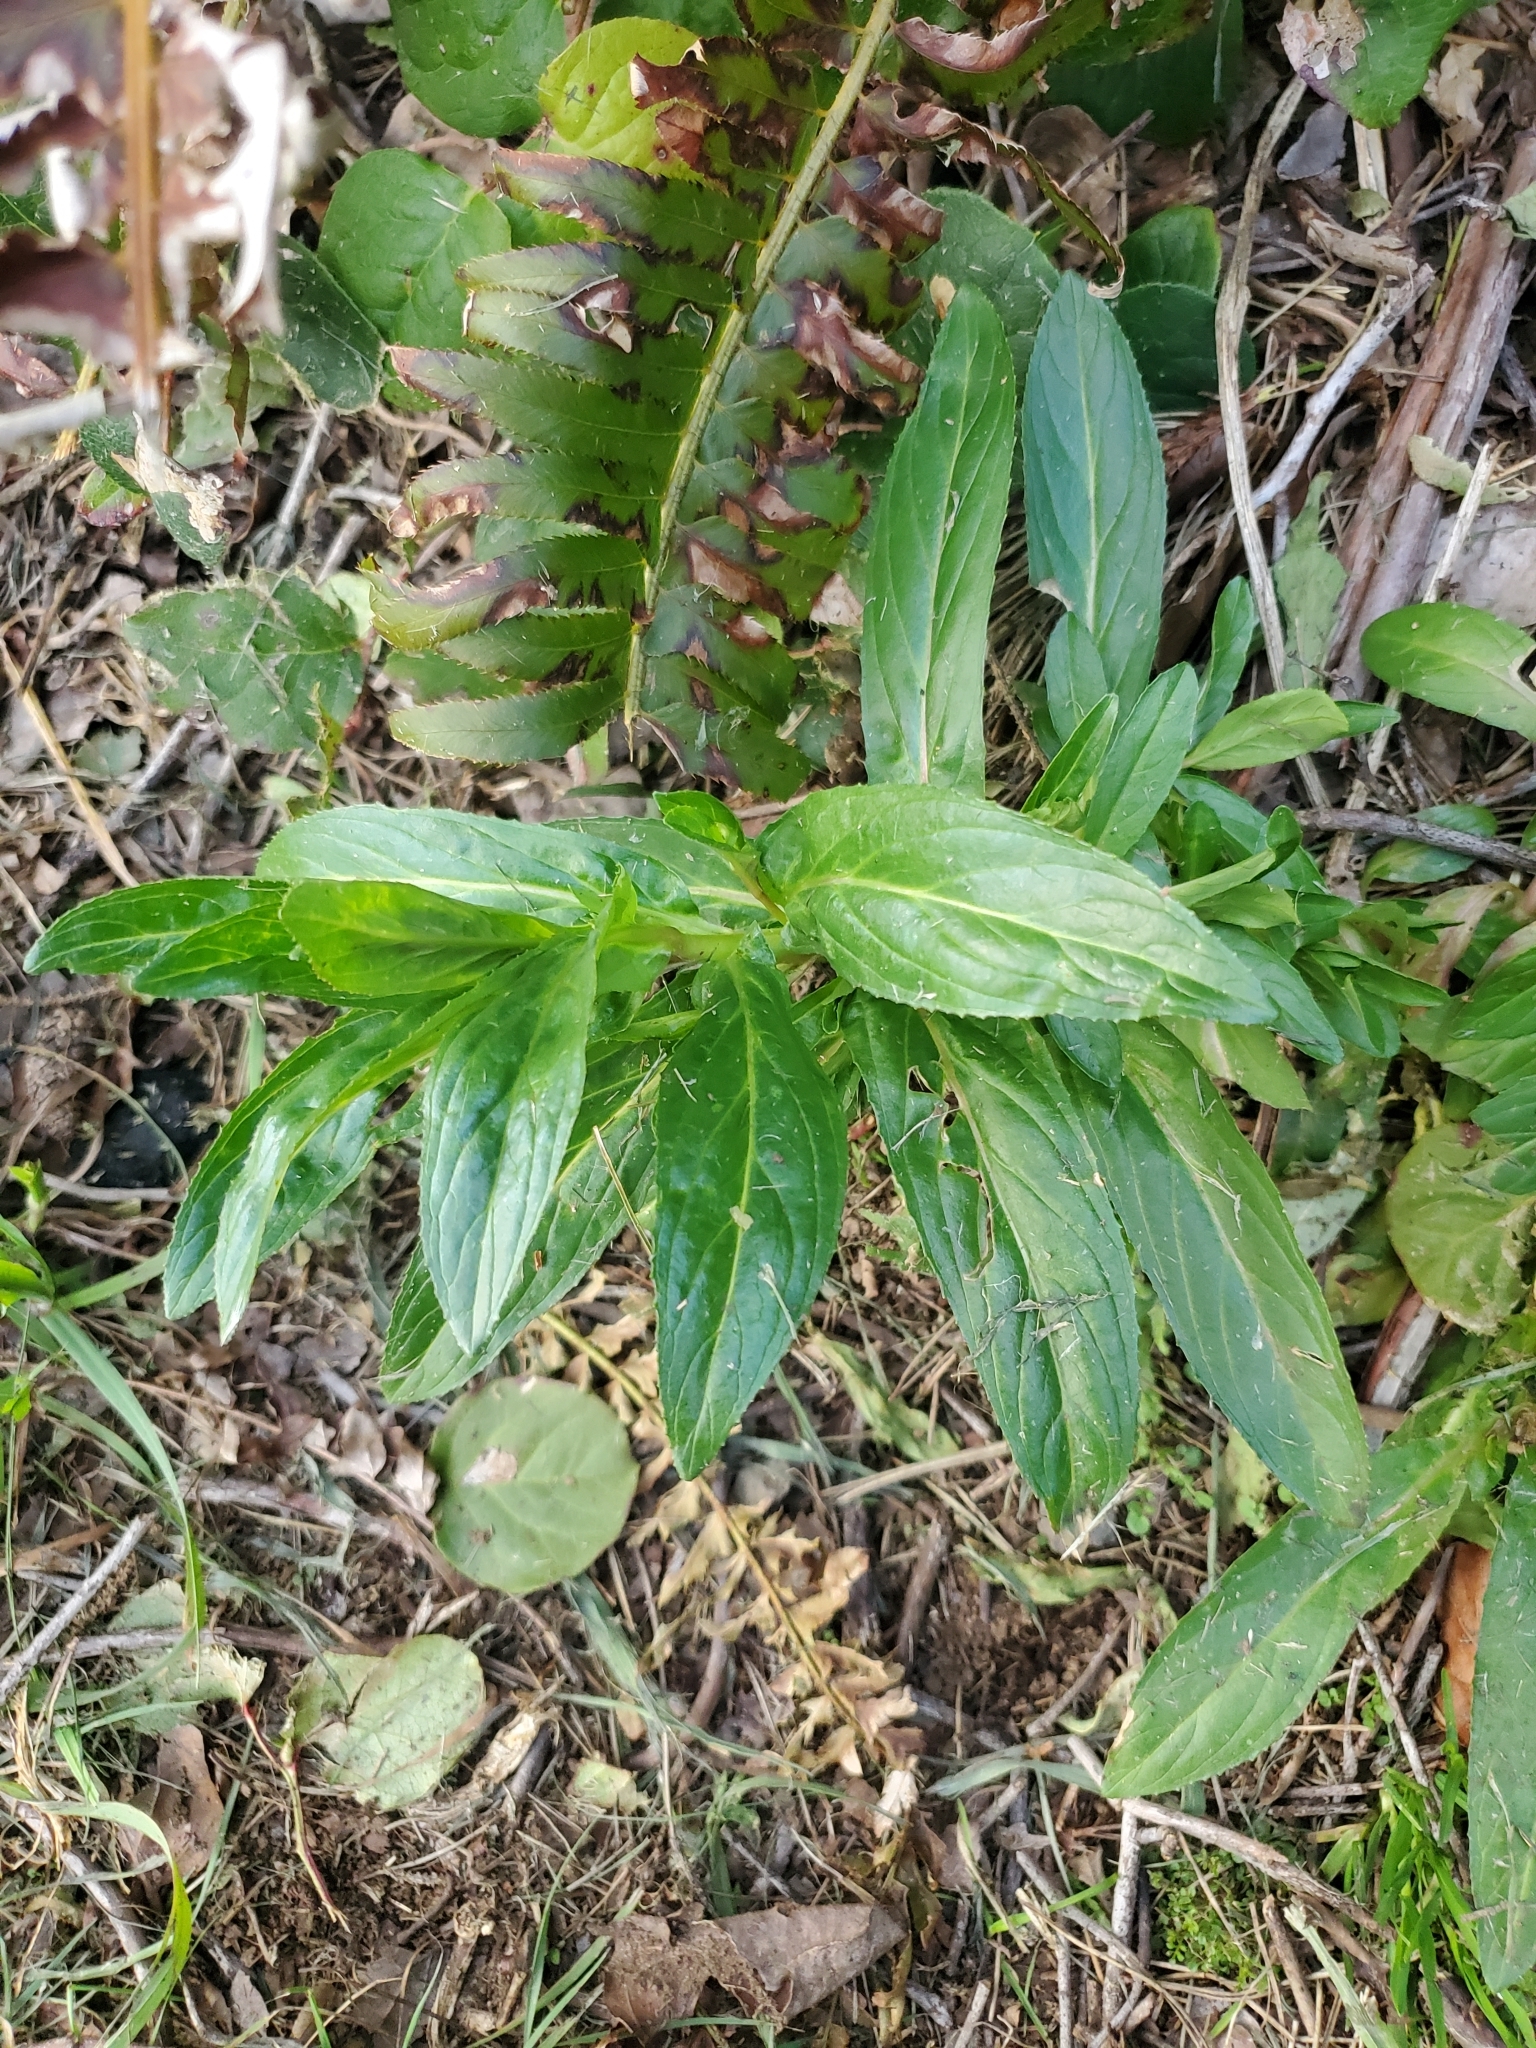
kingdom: Plantae
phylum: Tracheophyta
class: Magnoliopsida
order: Myrtales
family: Onagraceae
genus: Epilobium
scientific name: Epilobium ciliatum
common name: American willowherb
